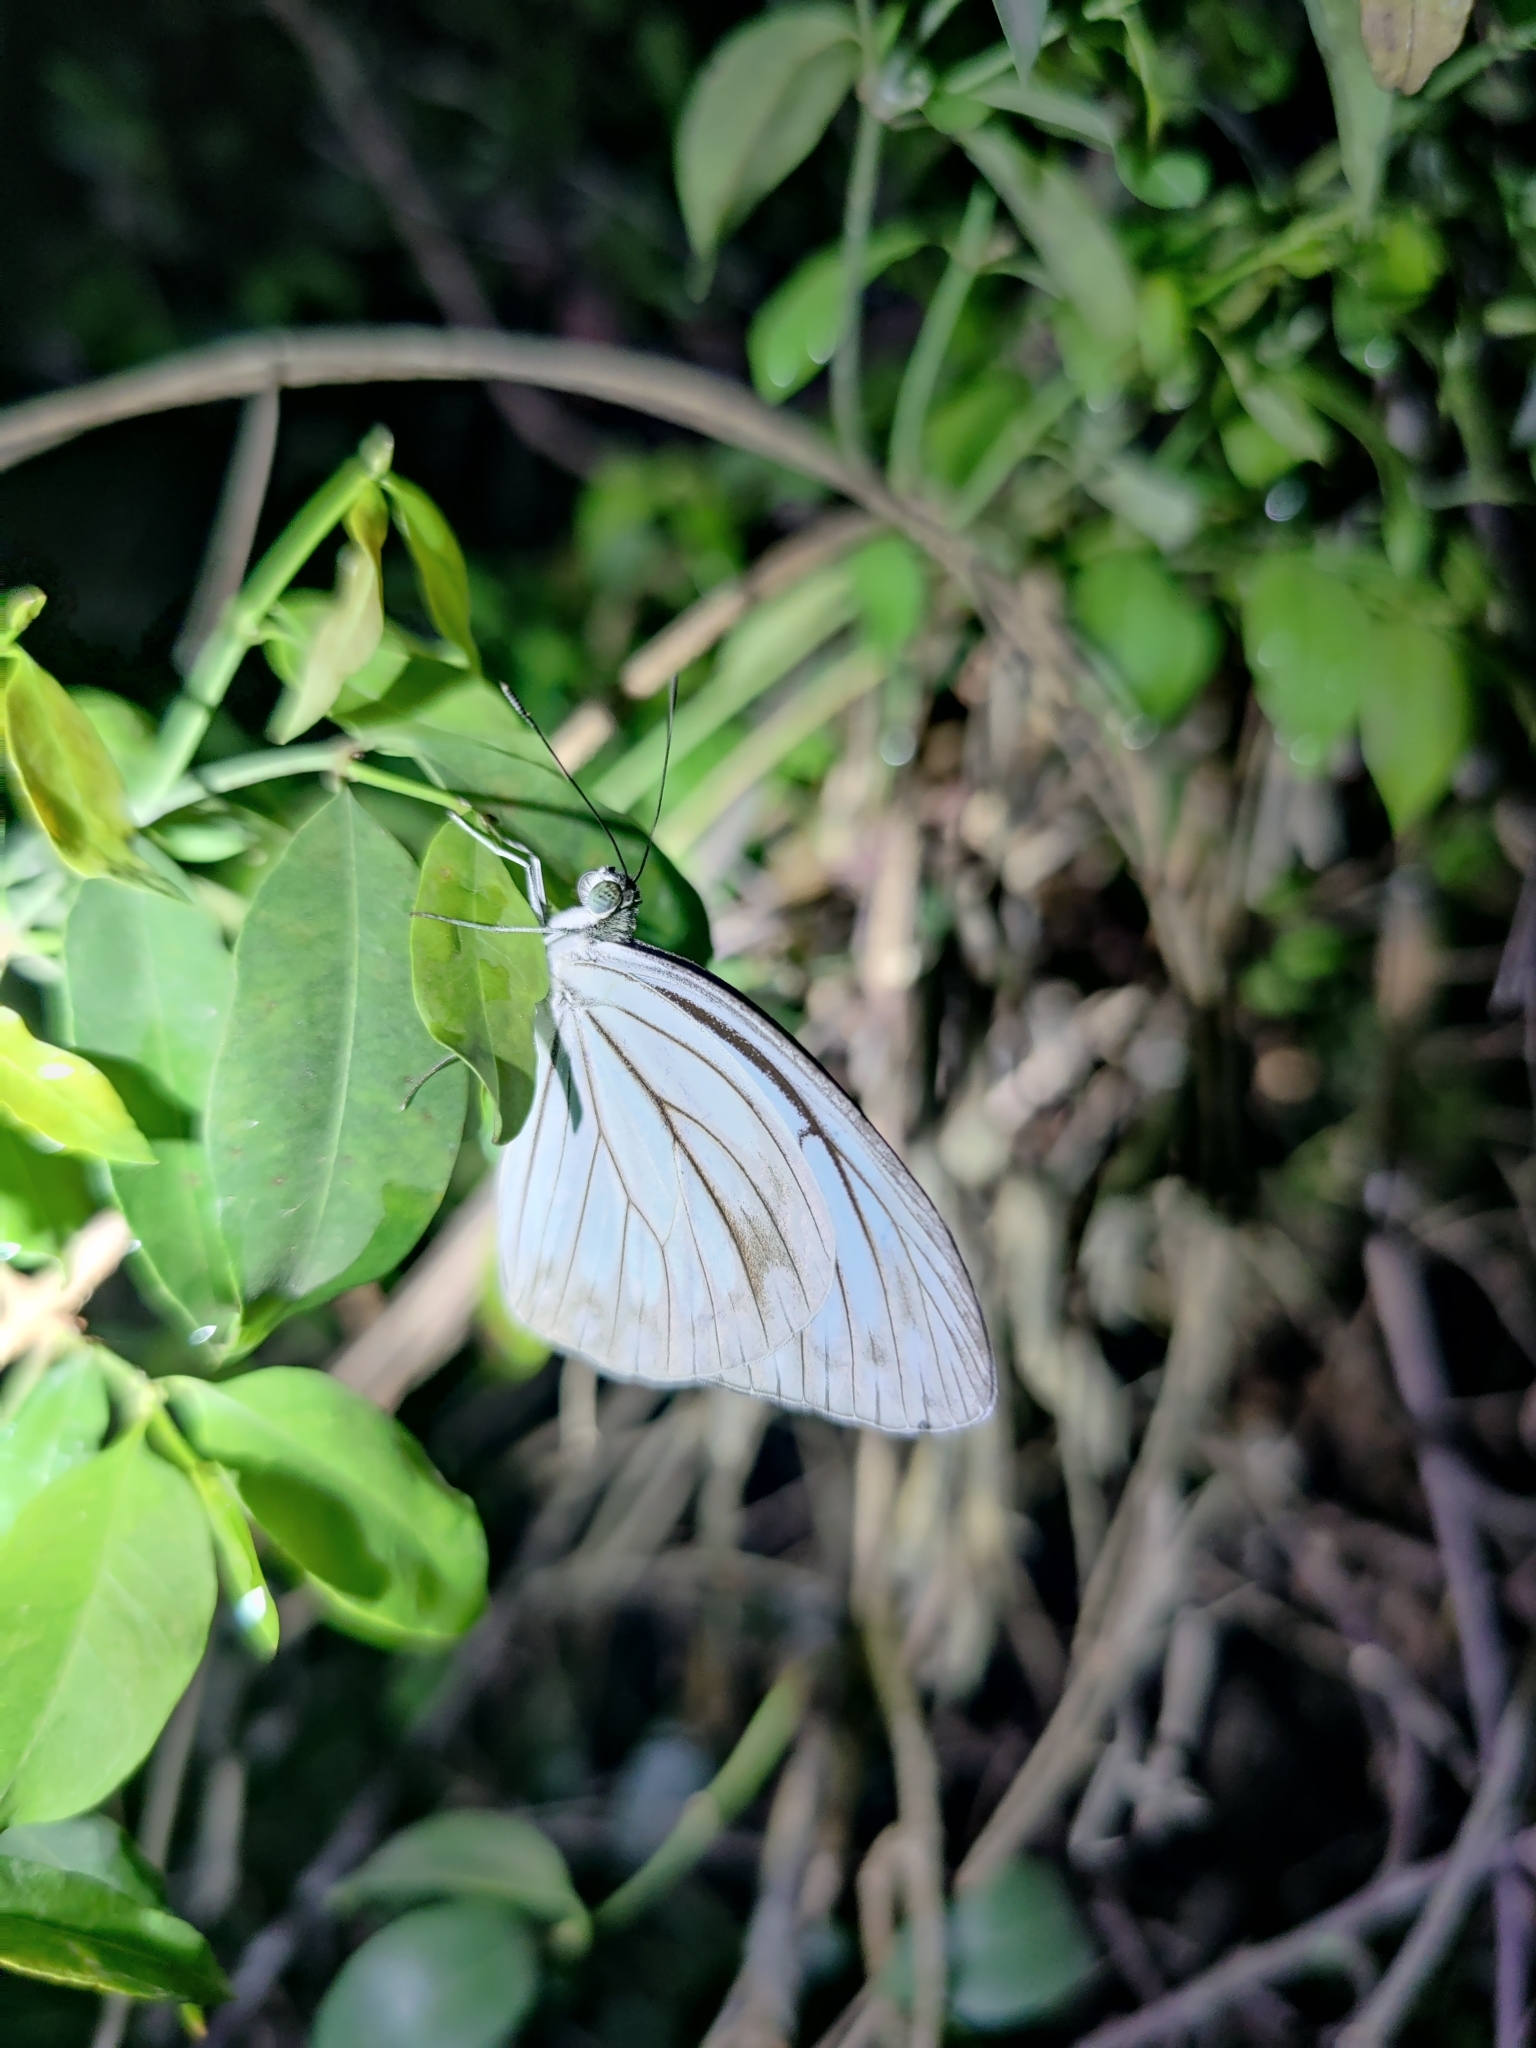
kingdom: Animalia
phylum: Arthropoda
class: Insecta
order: Lepidoptera
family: Pieridae
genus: Pareronia
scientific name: Pareronia hippia
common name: Indian wanderer
